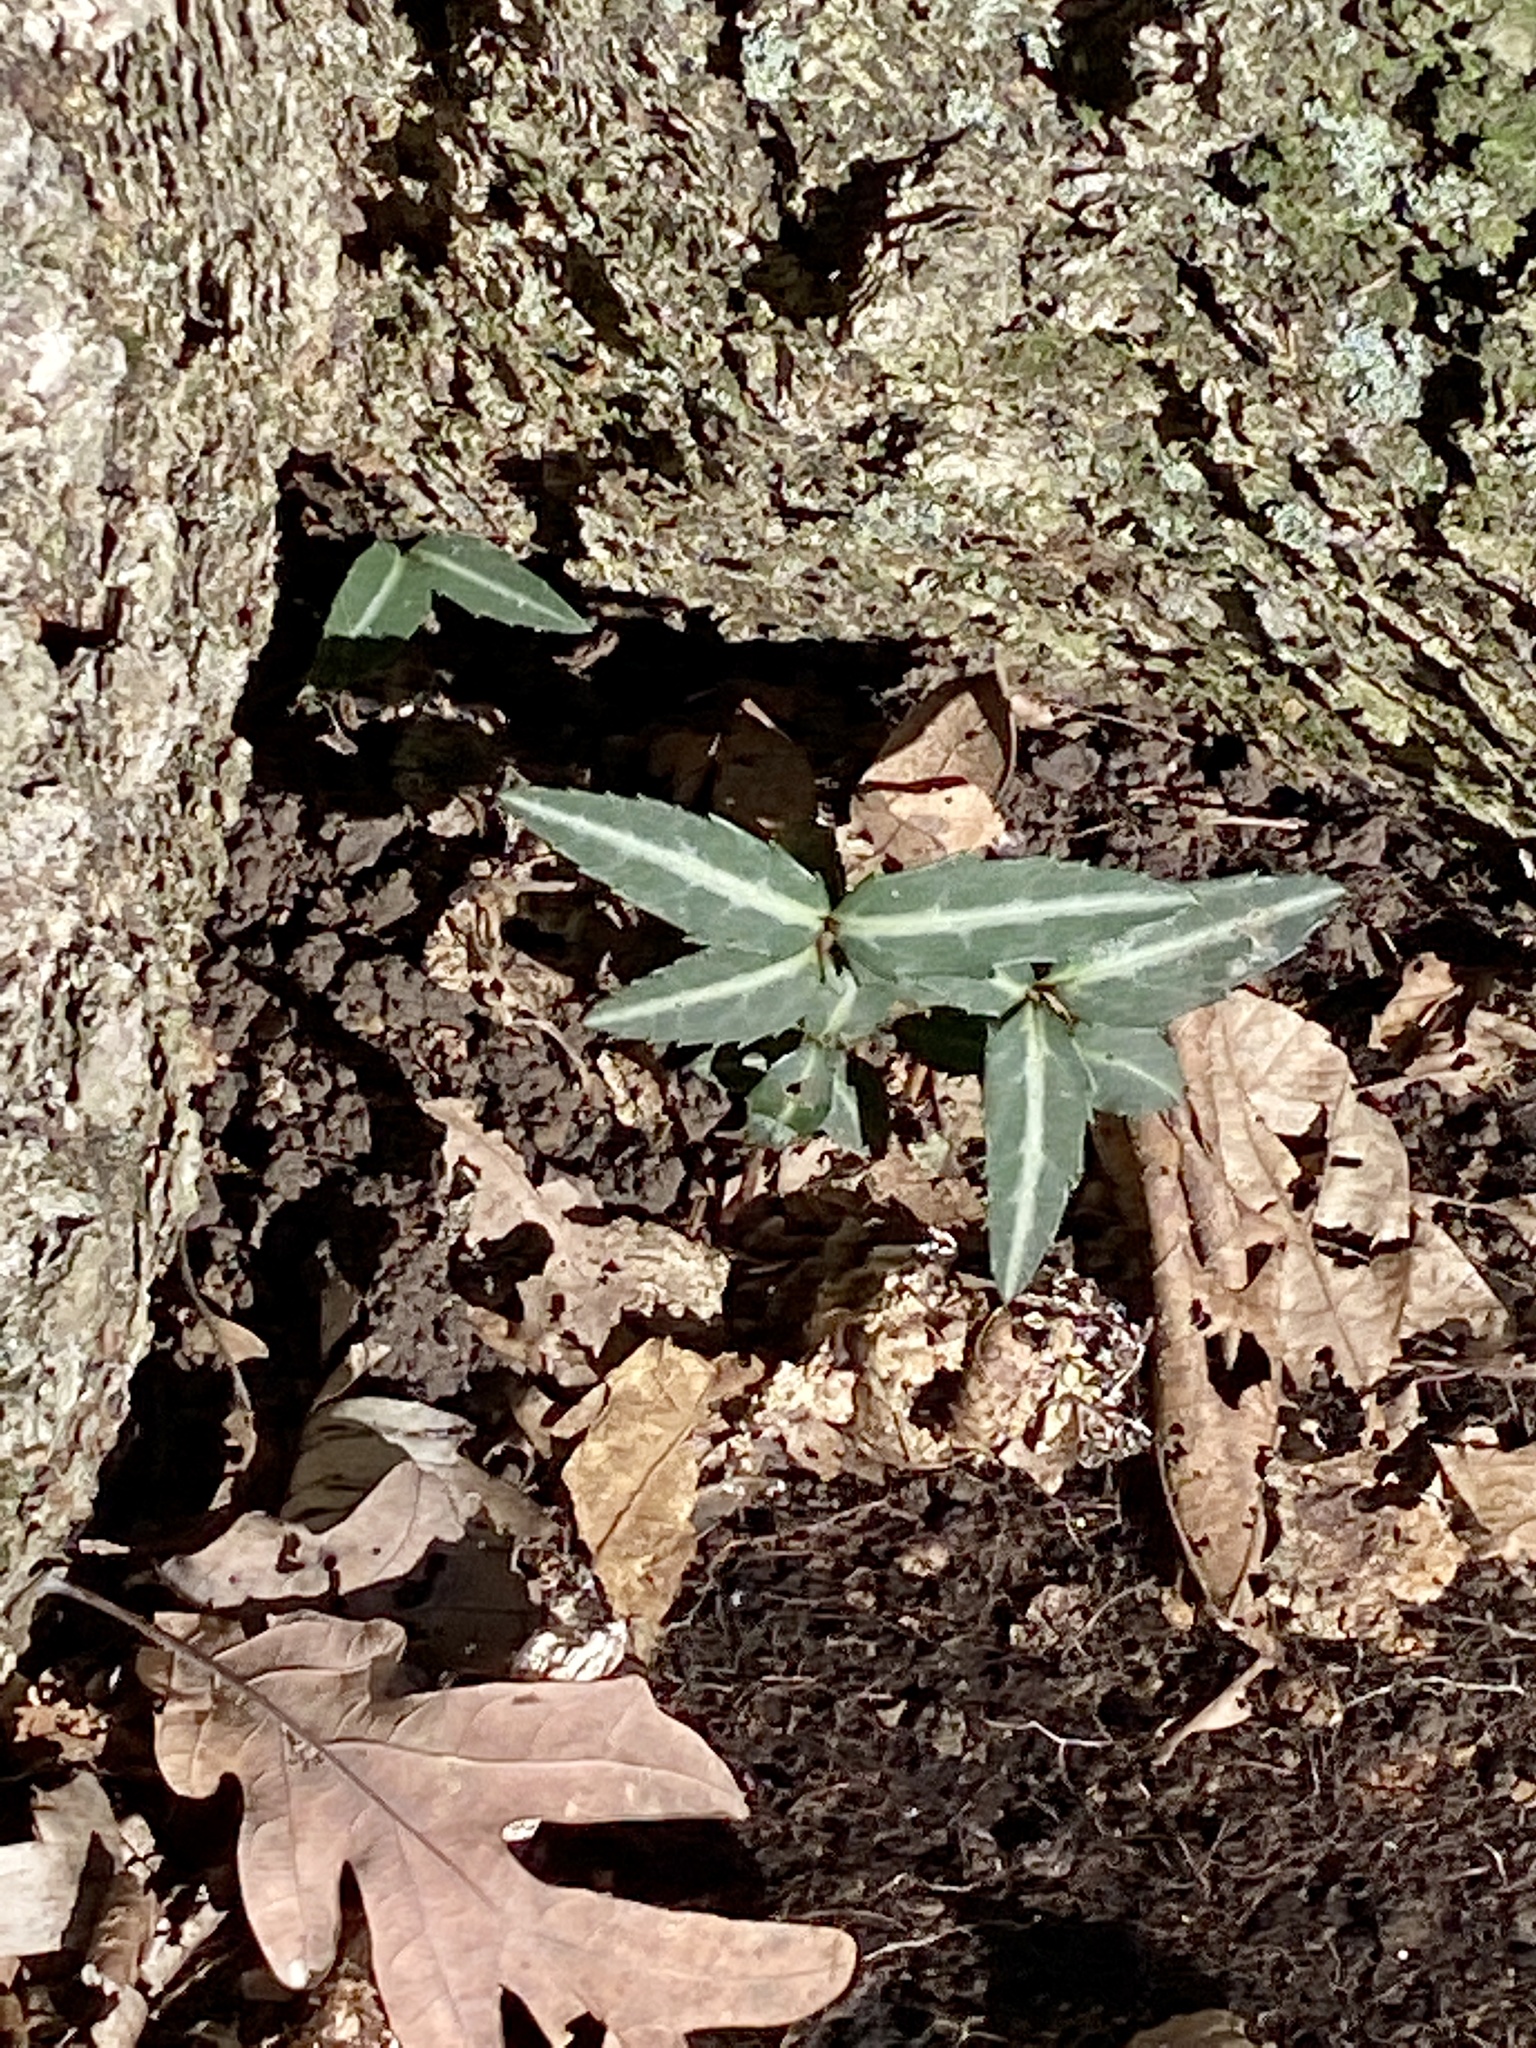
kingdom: Plantae
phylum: Tracheophyta
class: Magnoliopsida
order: Ericales
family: Ericaceae
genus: Chimaphila
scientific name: Chimaphila maculata
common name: Spotted pipsissewa
